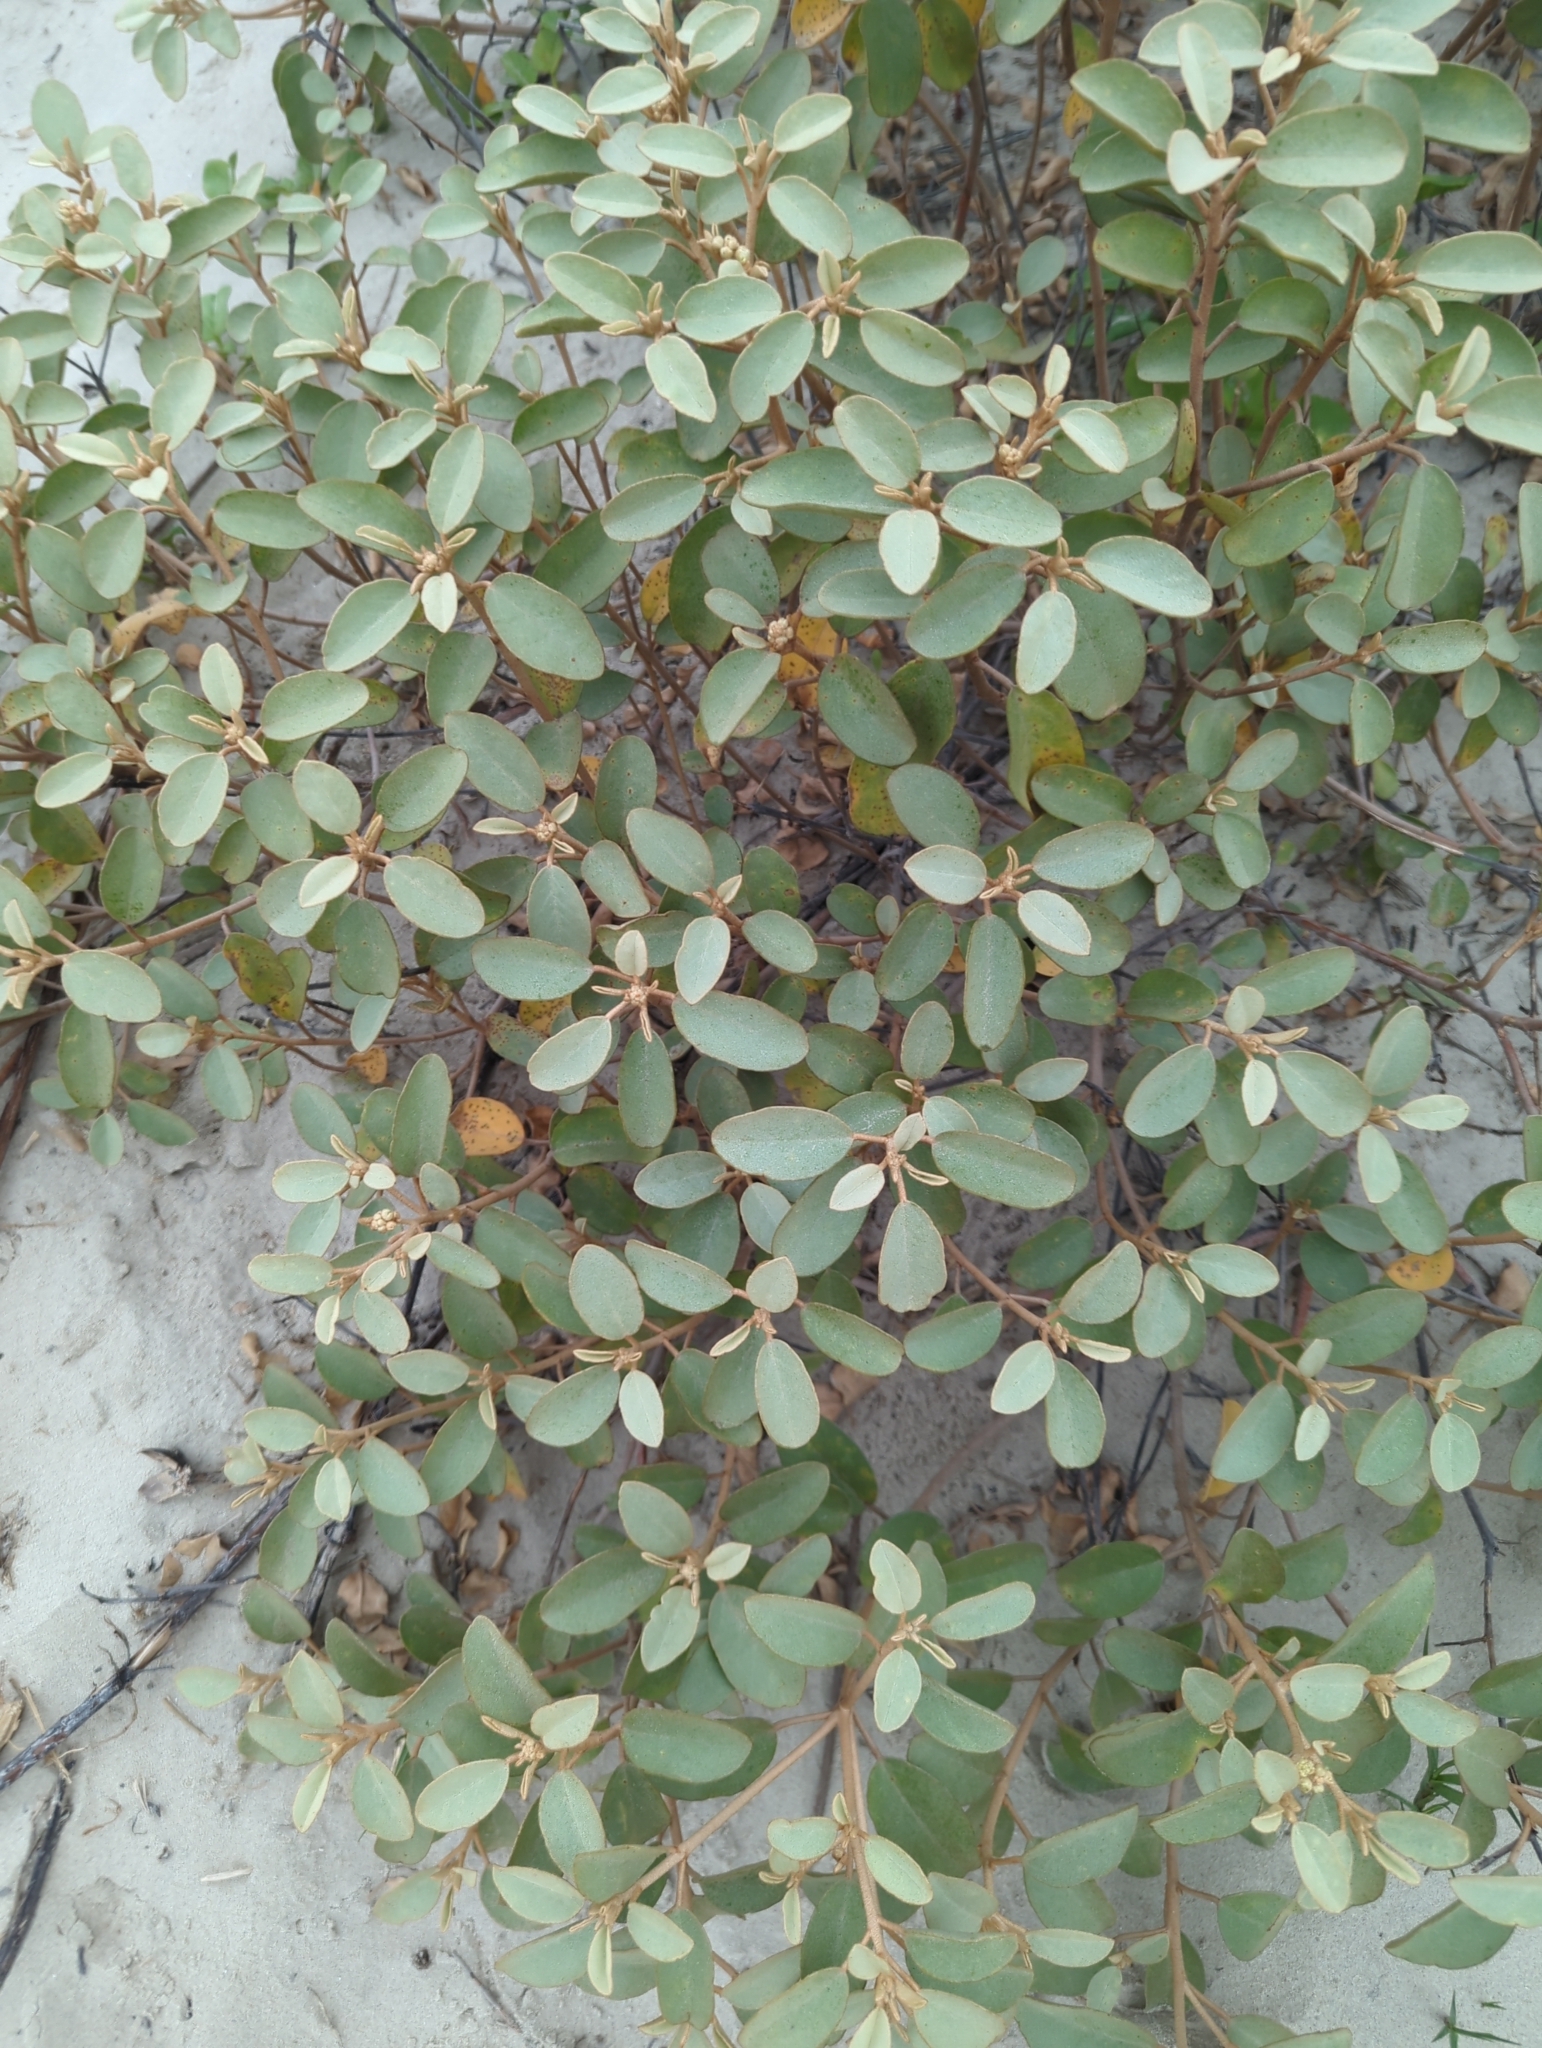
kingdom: Plantae
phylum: Tracheophyta
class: Magnoliopsida
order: Malpighiales
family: Euphorbiaceae
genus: Croton
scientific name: Croton punctatus
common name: Beach-tea
